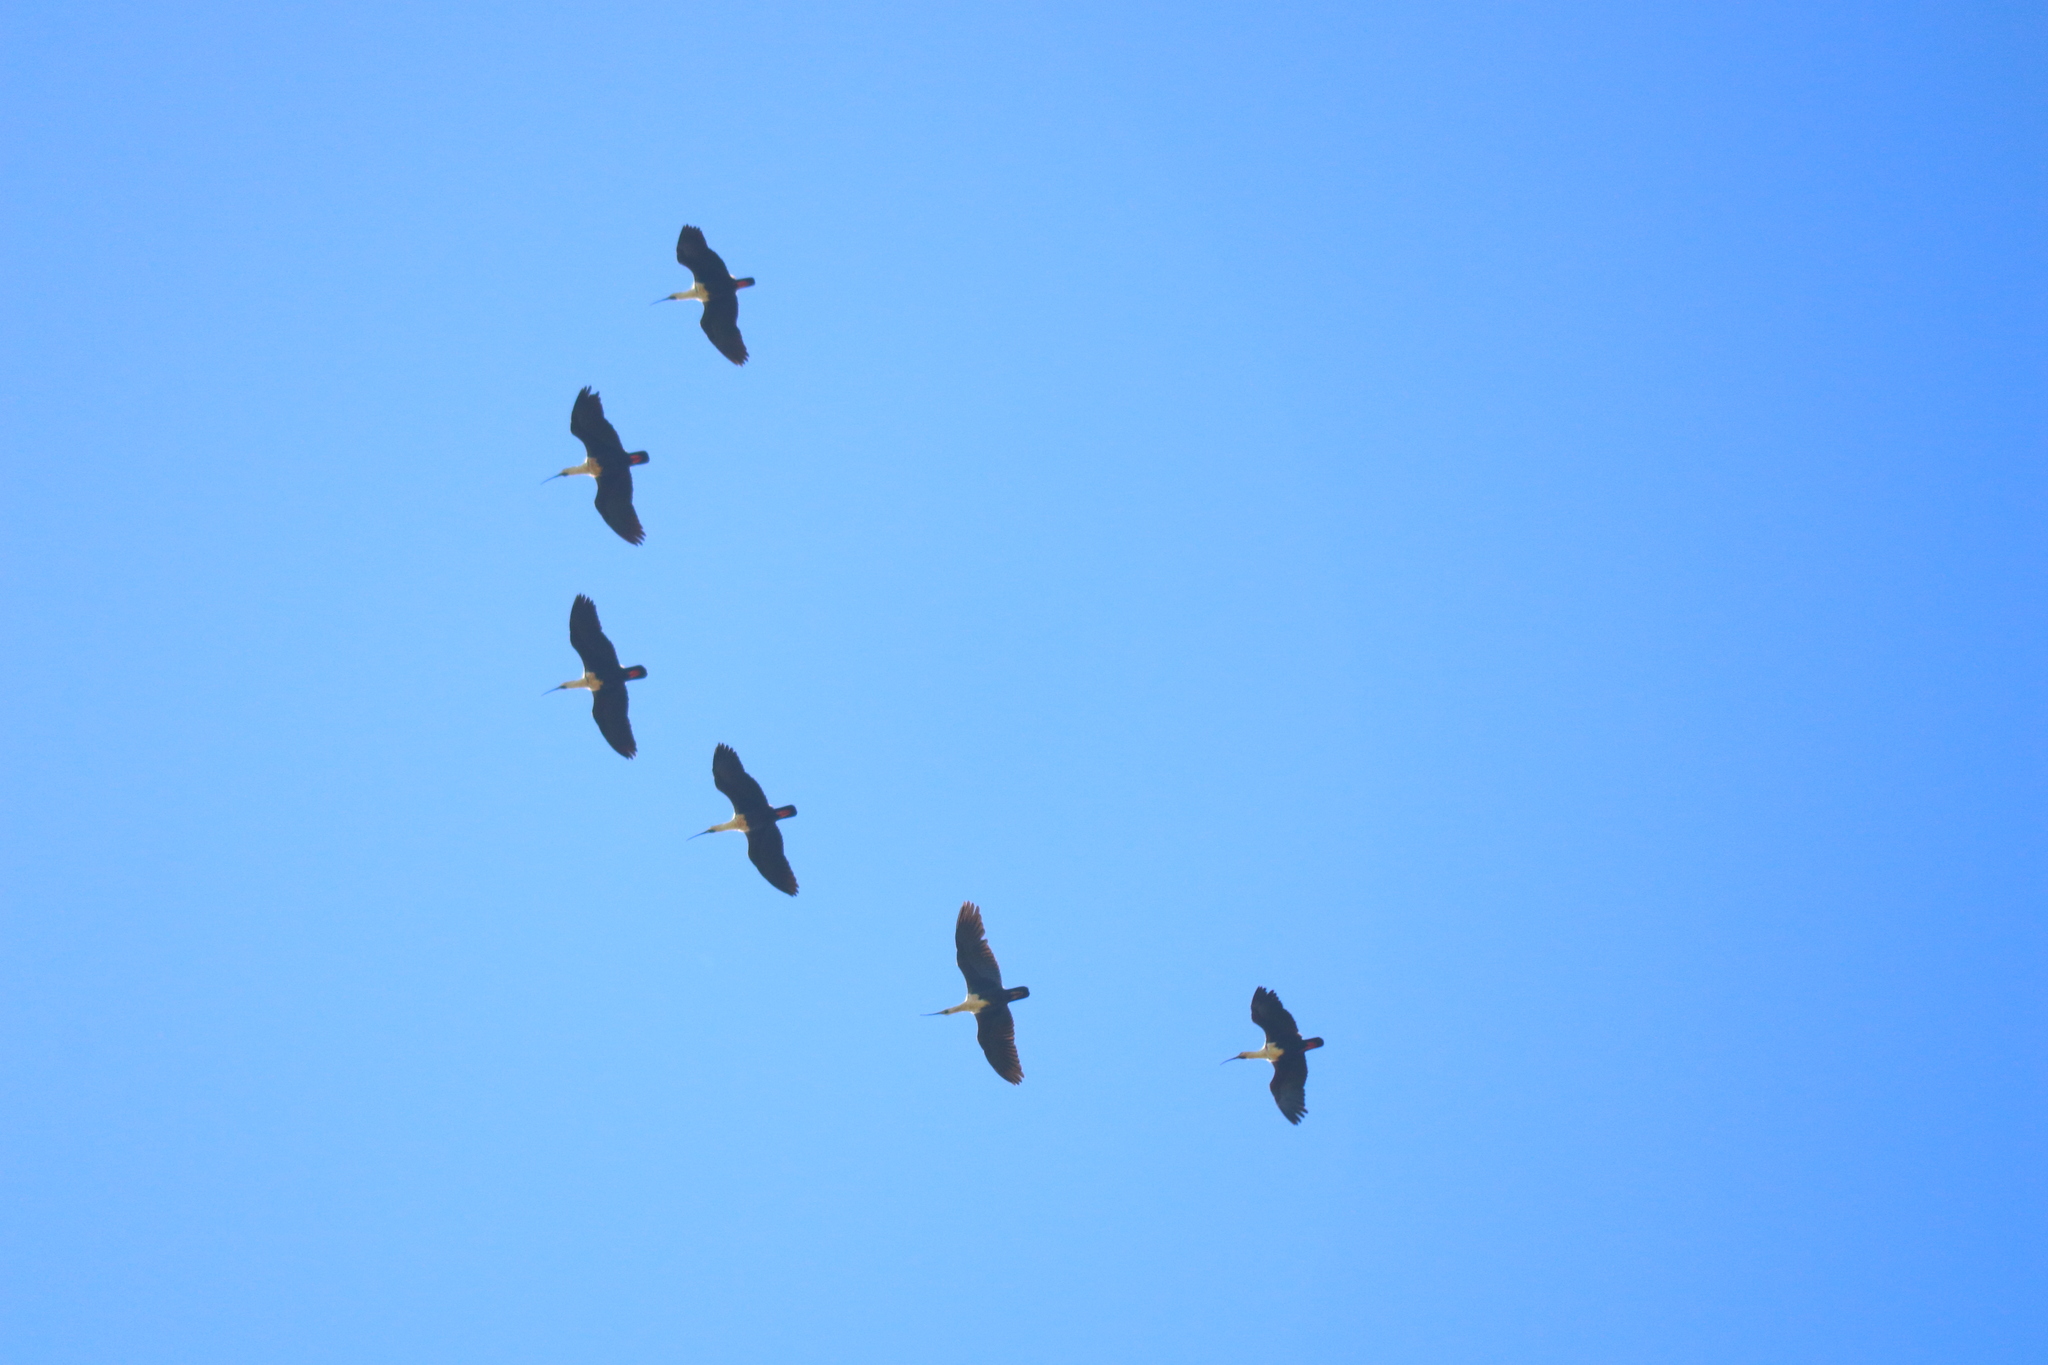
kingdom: Animalia
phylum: Chordata
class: Aves
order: Pelecaniformes
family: Threskiornithidae
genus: Theristicus
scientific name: Theristicus melanopis
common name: Black-faced ibis
